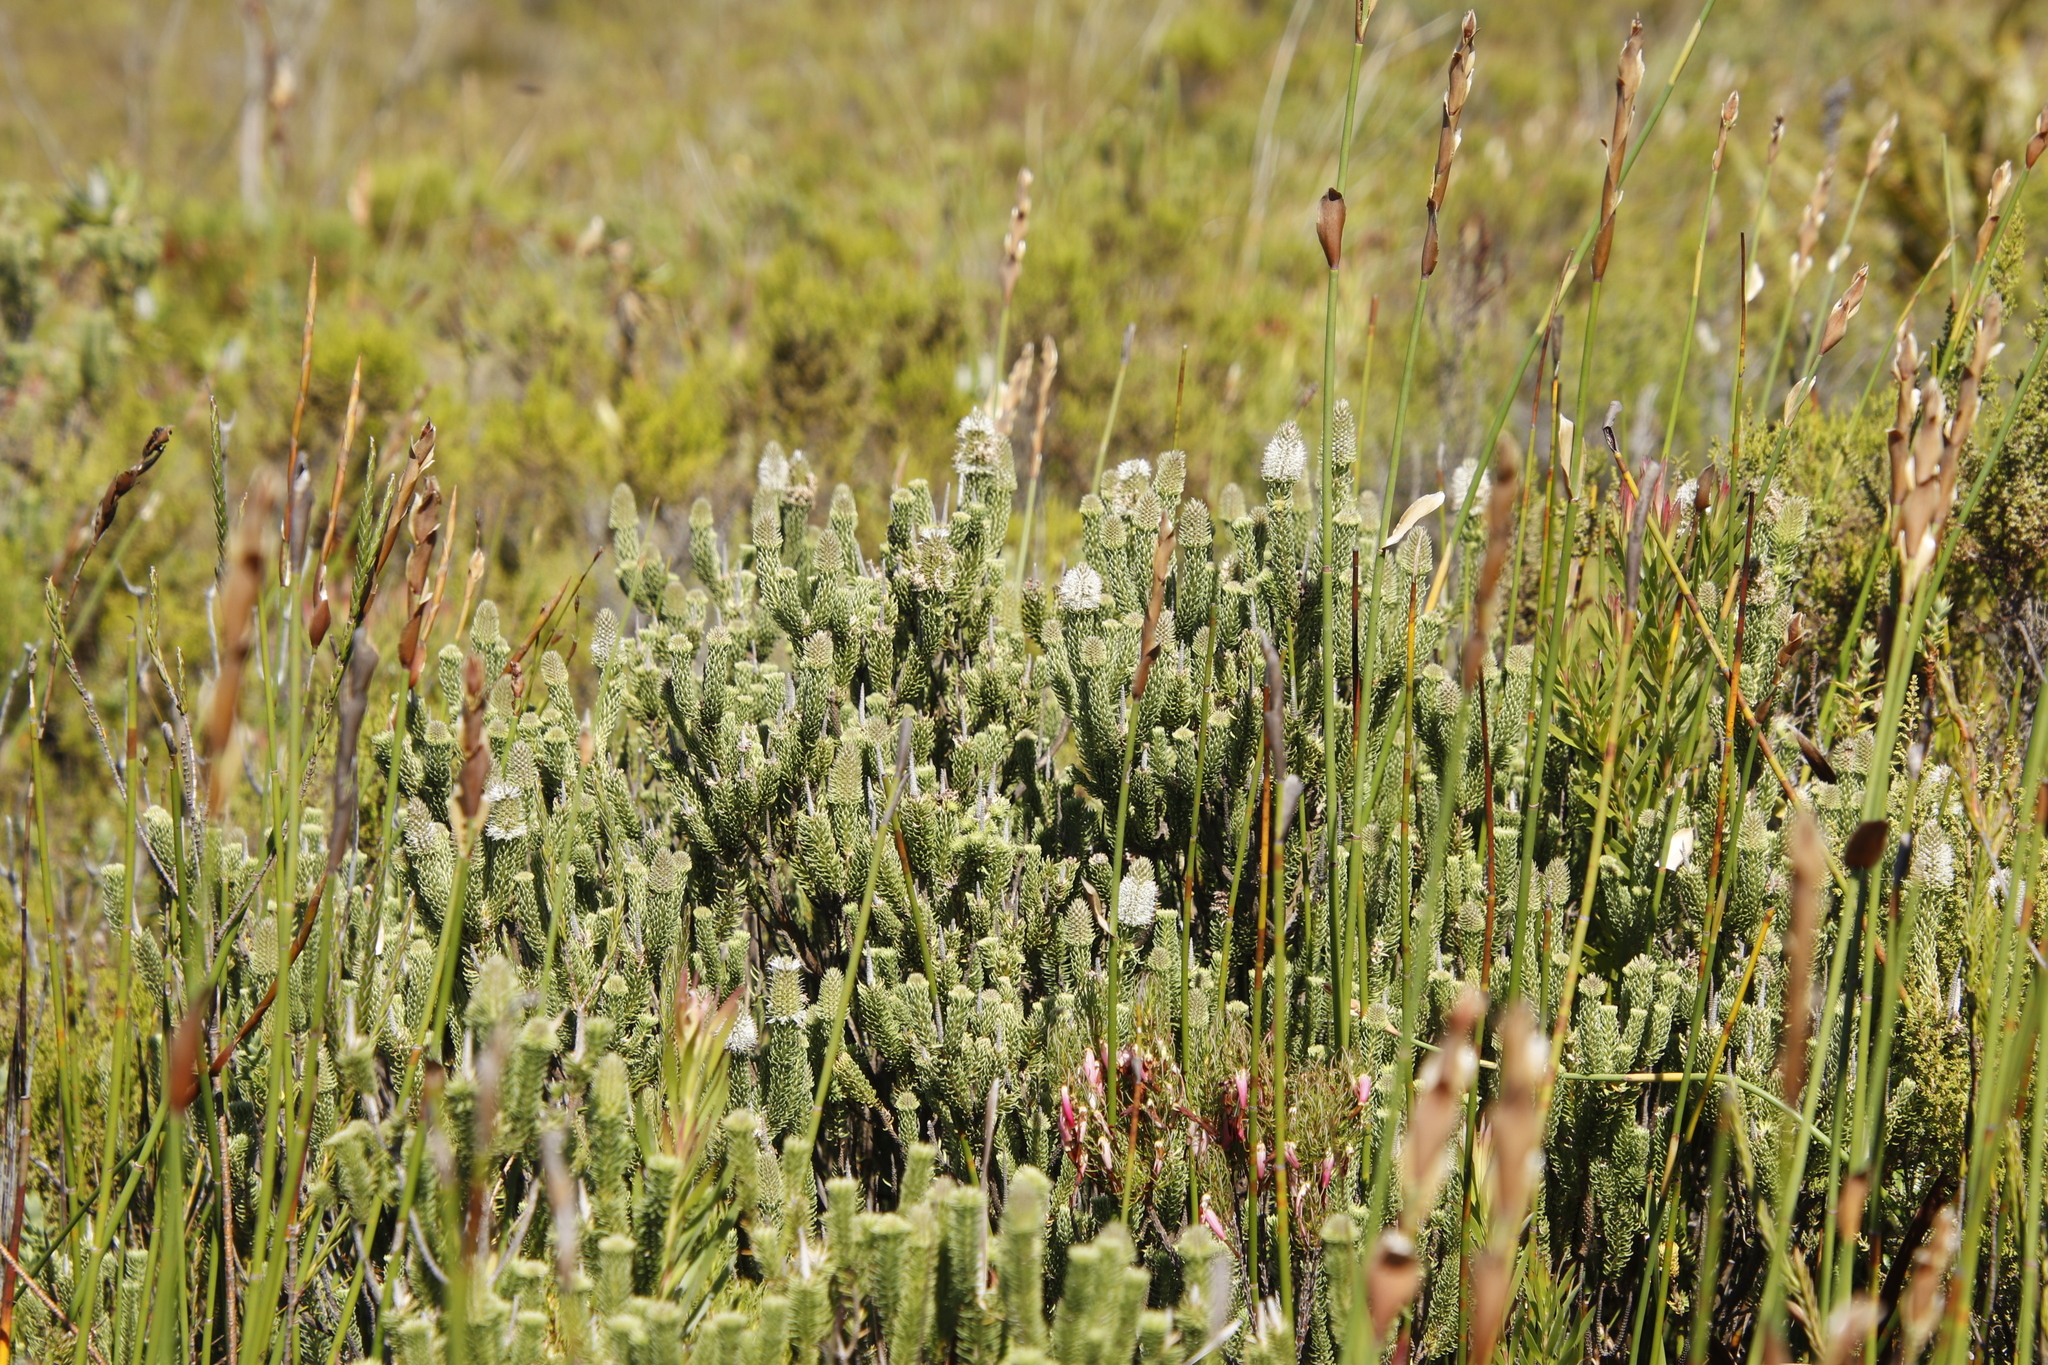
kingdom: Plantae
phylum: Tracheophyta
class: Magnoliopsida
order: Lamiales
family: Stilbaceae
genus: Stilbe
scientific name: Stilbe vestita
